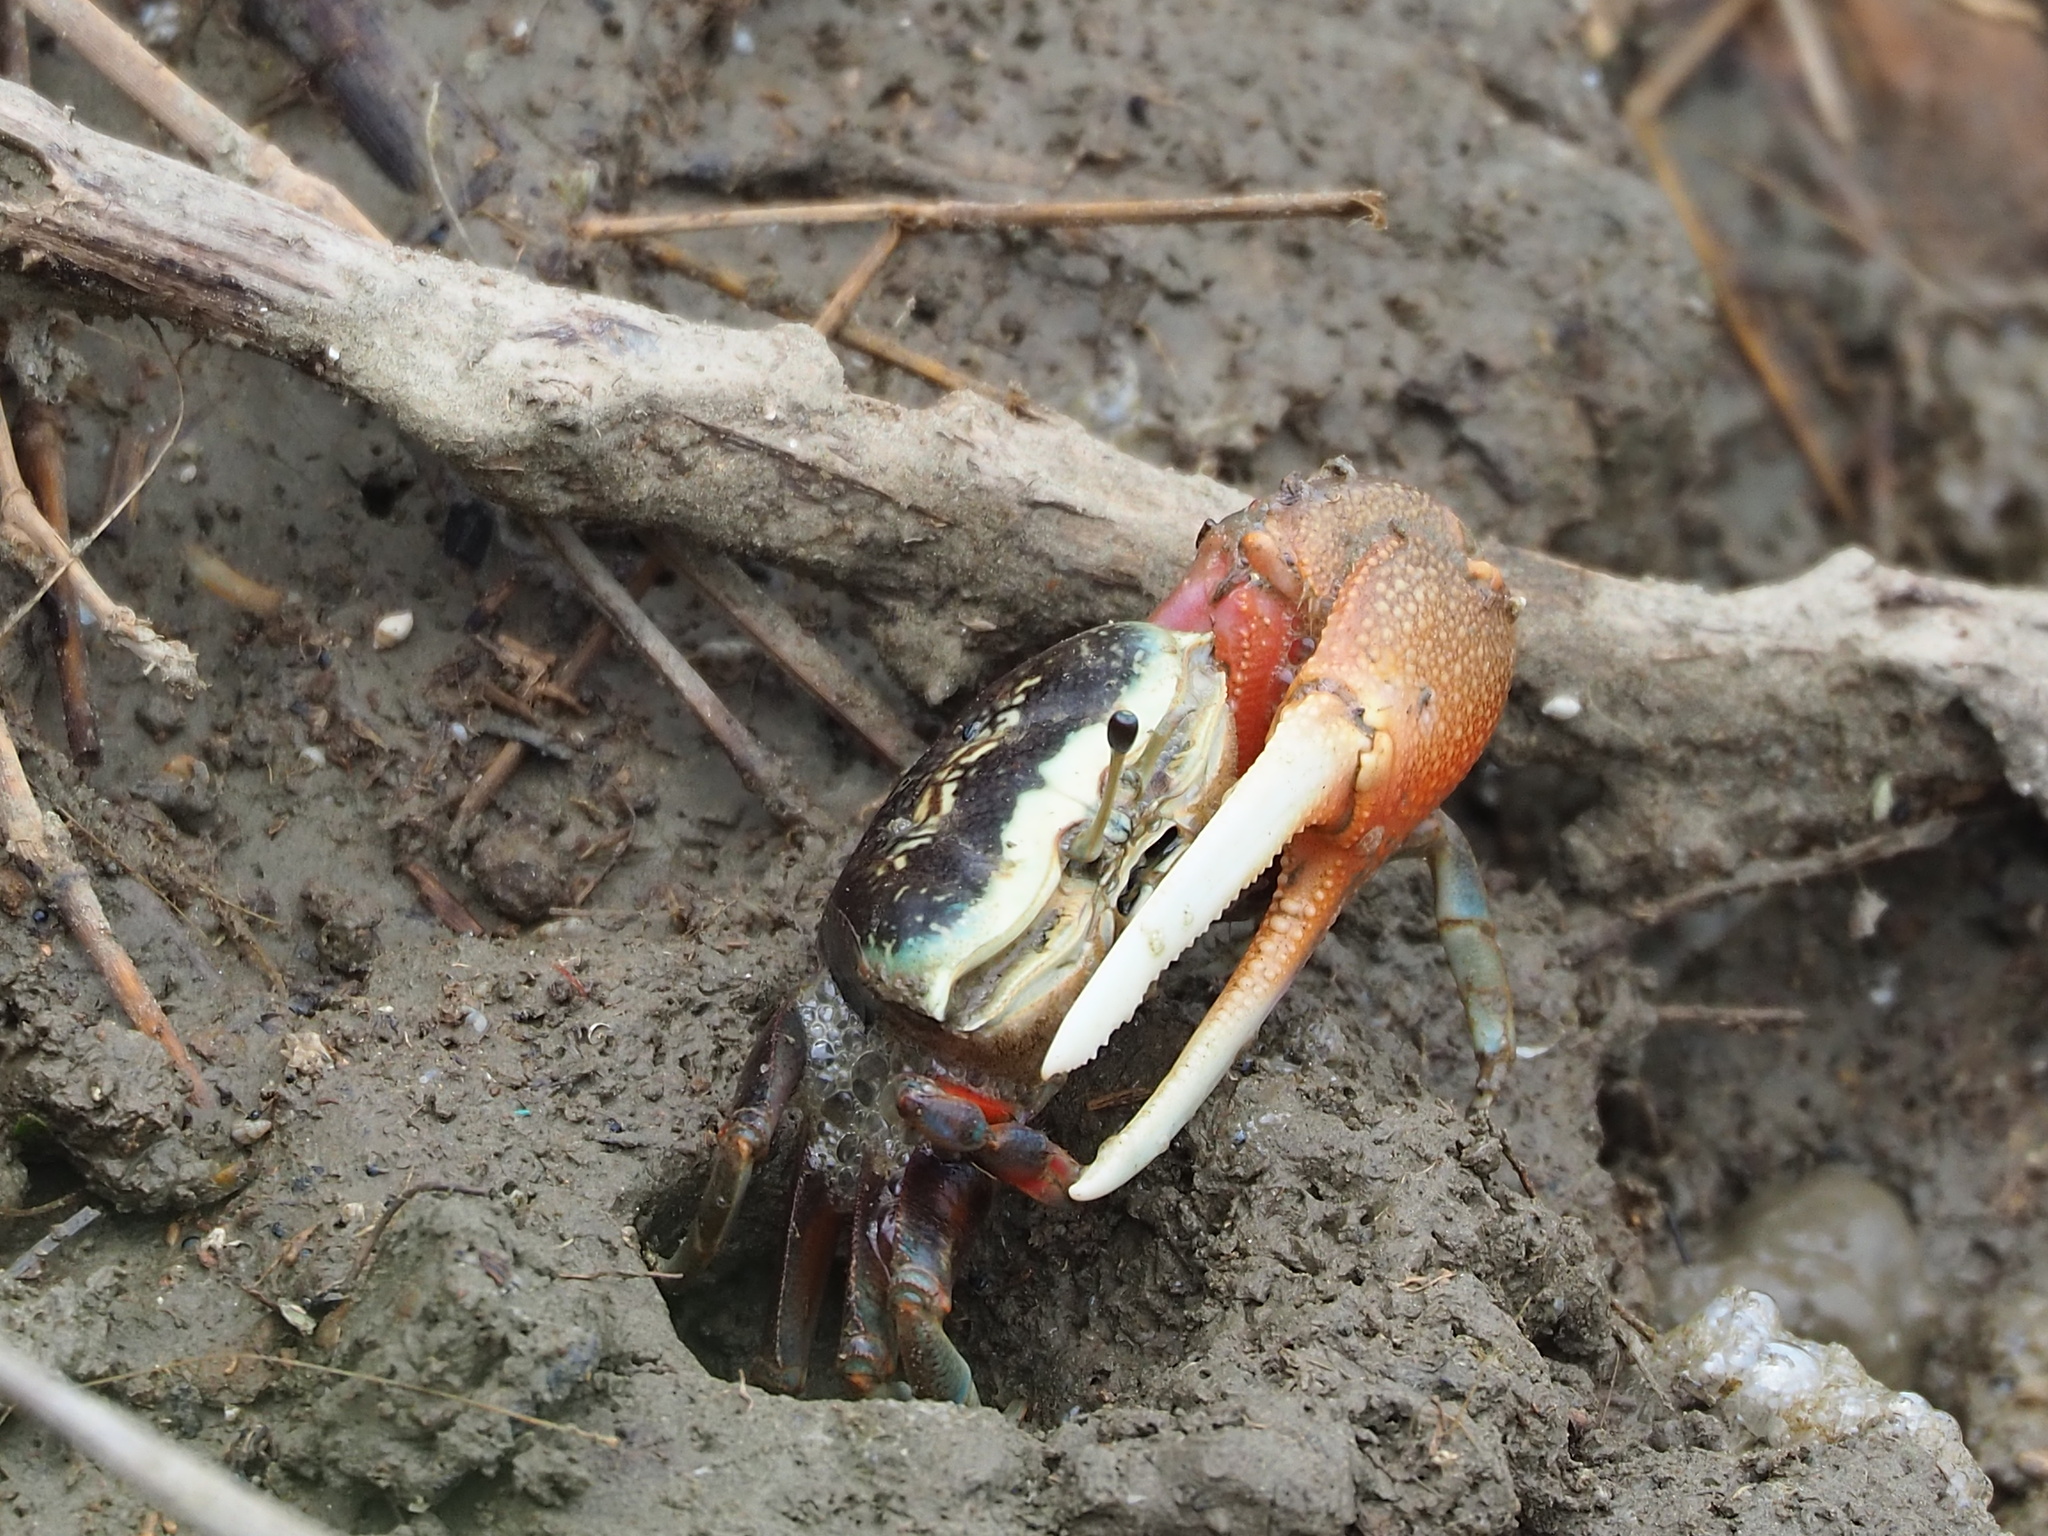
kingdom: Animalia
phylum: Arthropoda
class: Malacostraca
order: Decapoda
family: Ocypodidae
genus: Tubuca
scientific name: Tubuca arcuata
